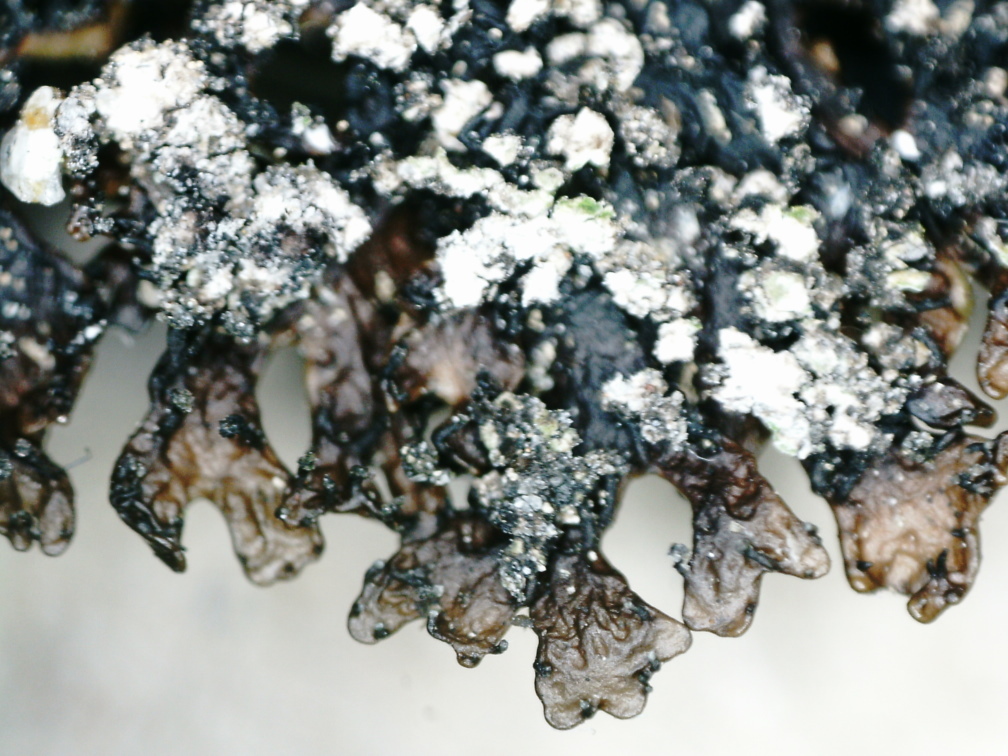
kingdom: Fungi
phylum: Ascomycota
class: Lecanoromycetes
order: Lecanorales
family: Parmeliaceae
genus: Melanelia
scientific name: Melanelia stygia
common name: Alpine camouflage lichen
